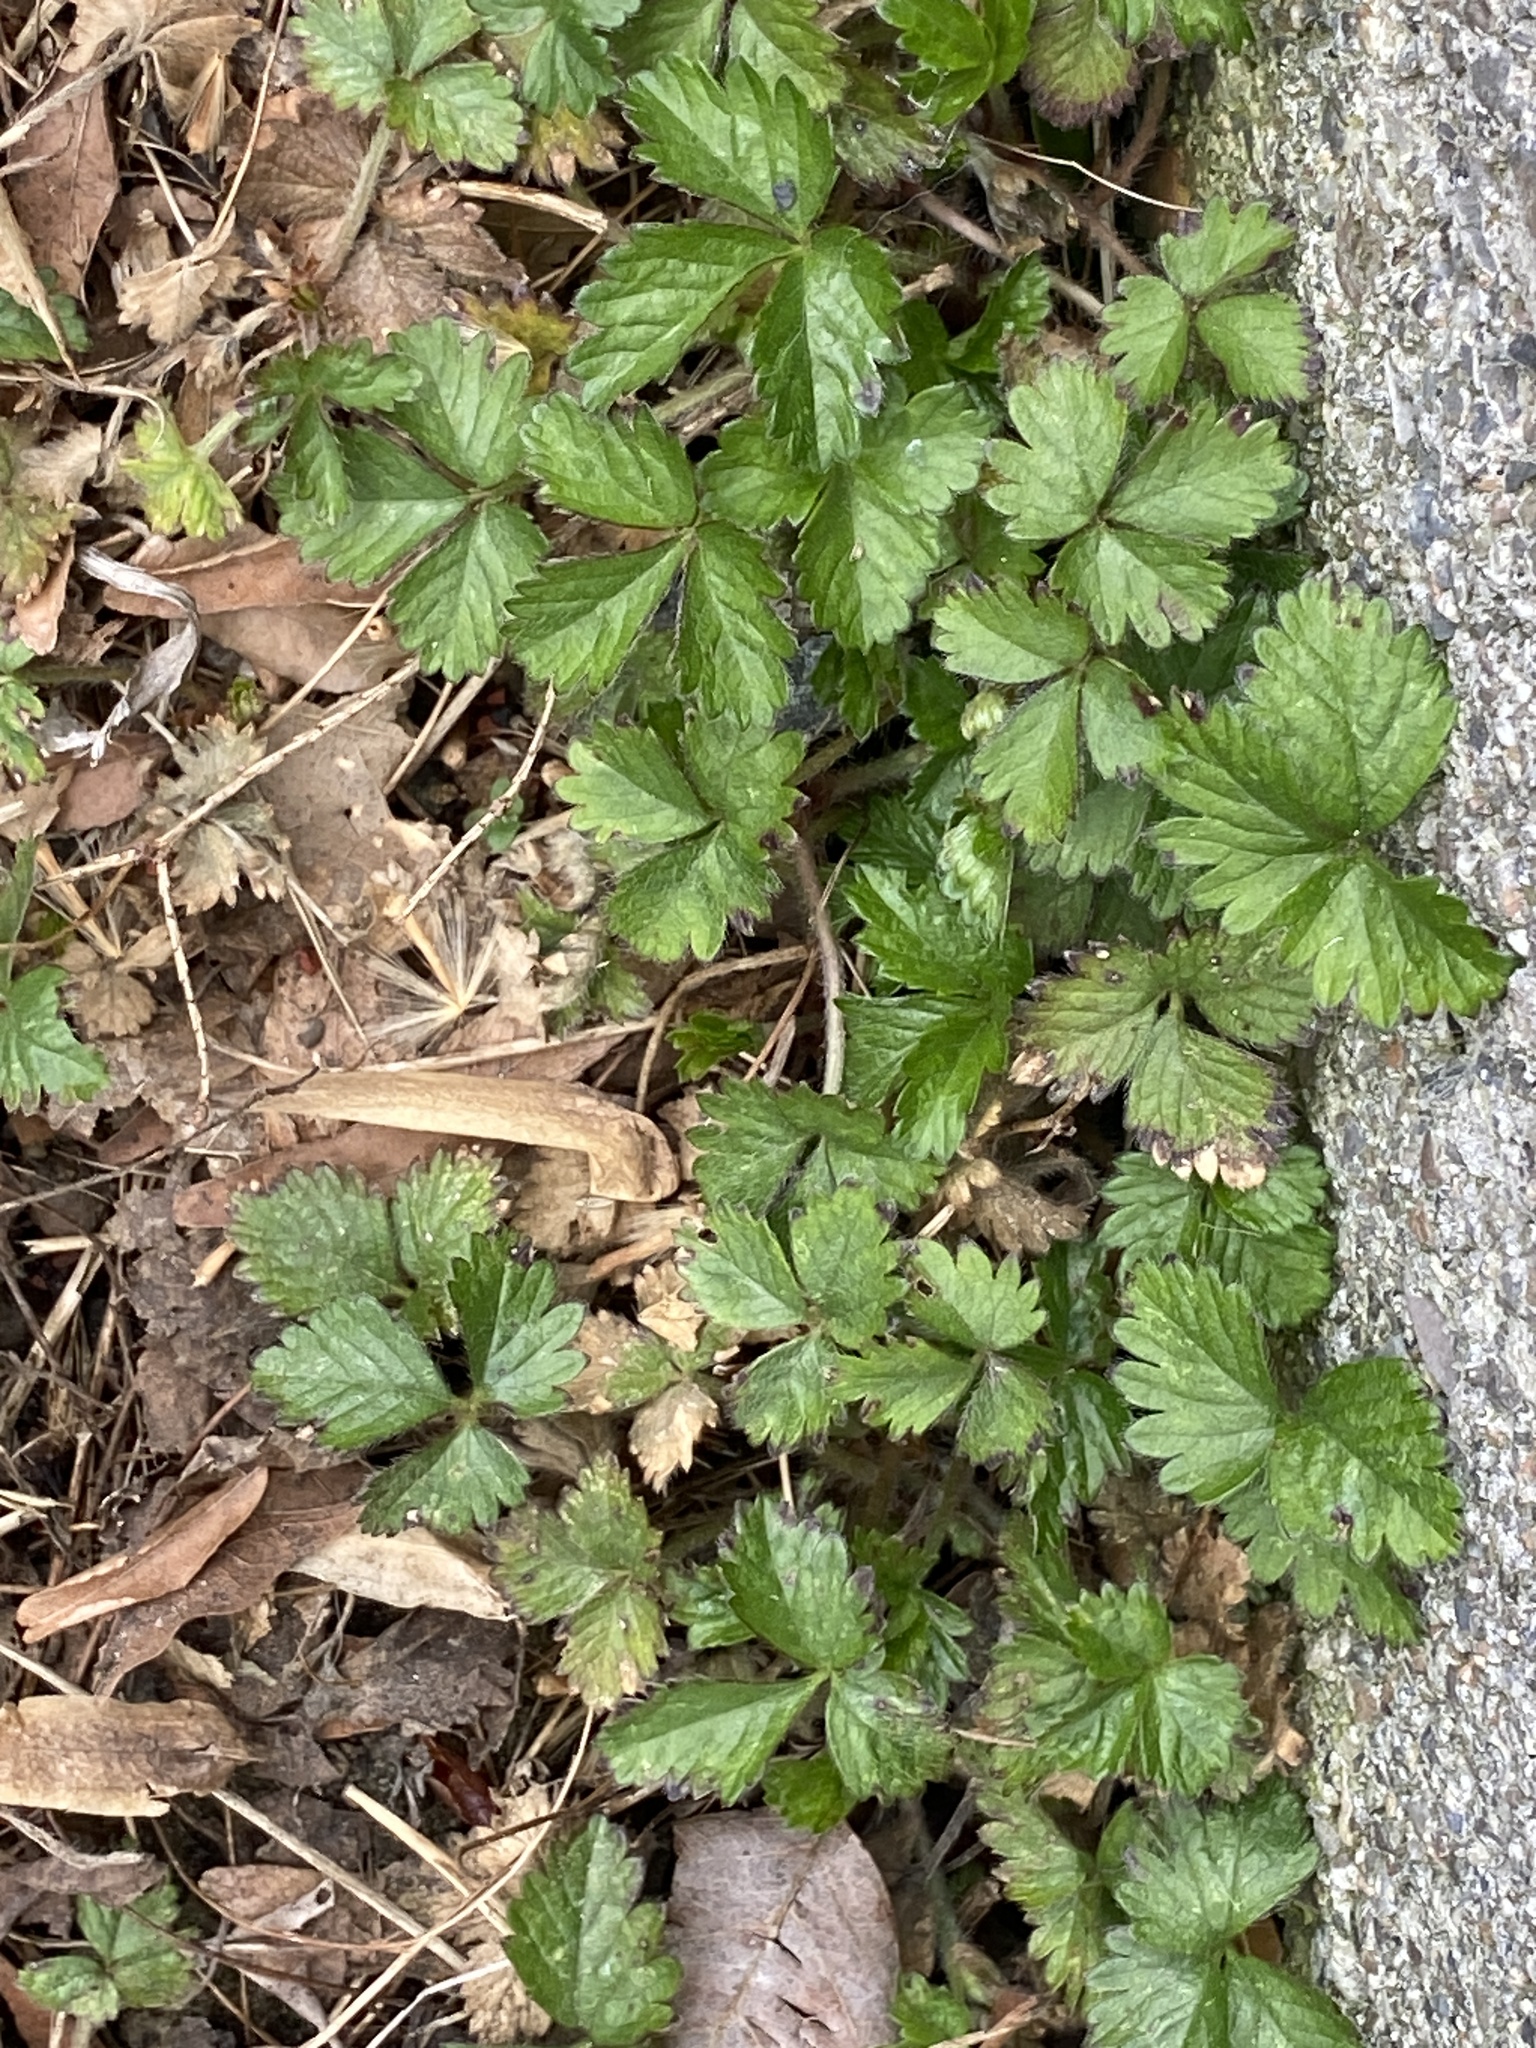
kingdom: Plantae
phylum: Tracheophyta
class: Magnoliopsida
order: Rosales
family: Rosaceae
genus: Potentilla
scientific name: Potentilla indica
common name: Yellow-flowered strawberry
